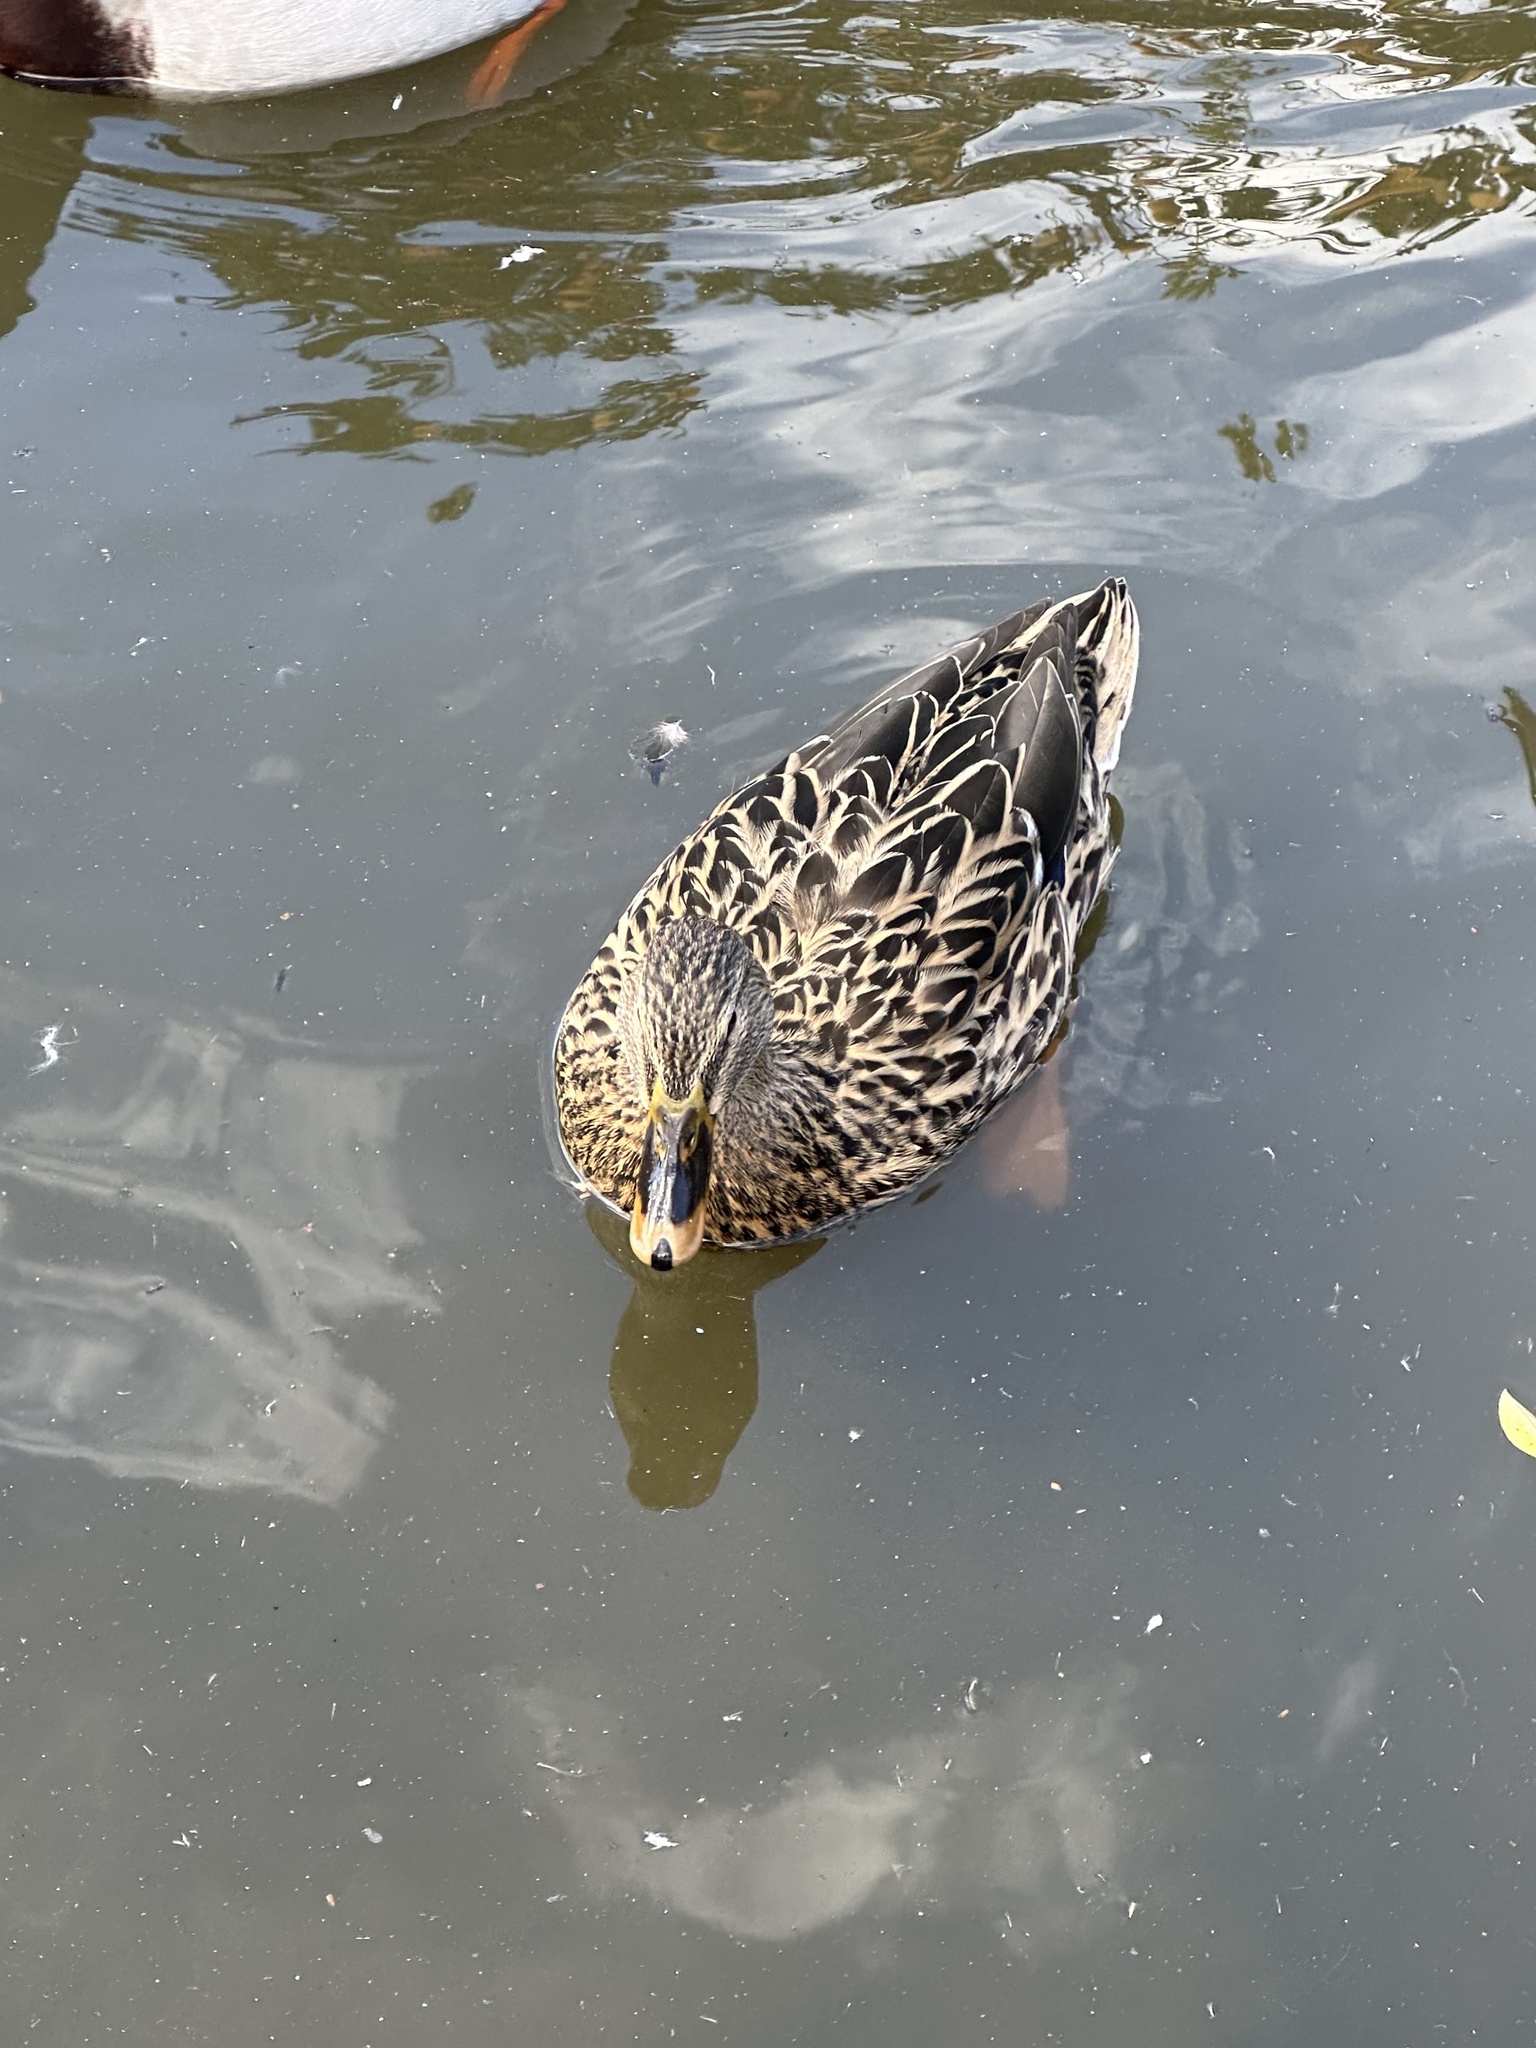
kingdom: Animalia
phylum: Chordata
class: Aves
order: Anseriformes
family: Anatidae
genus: Anas
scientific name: Anas platyrhynchos
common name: Mallard
